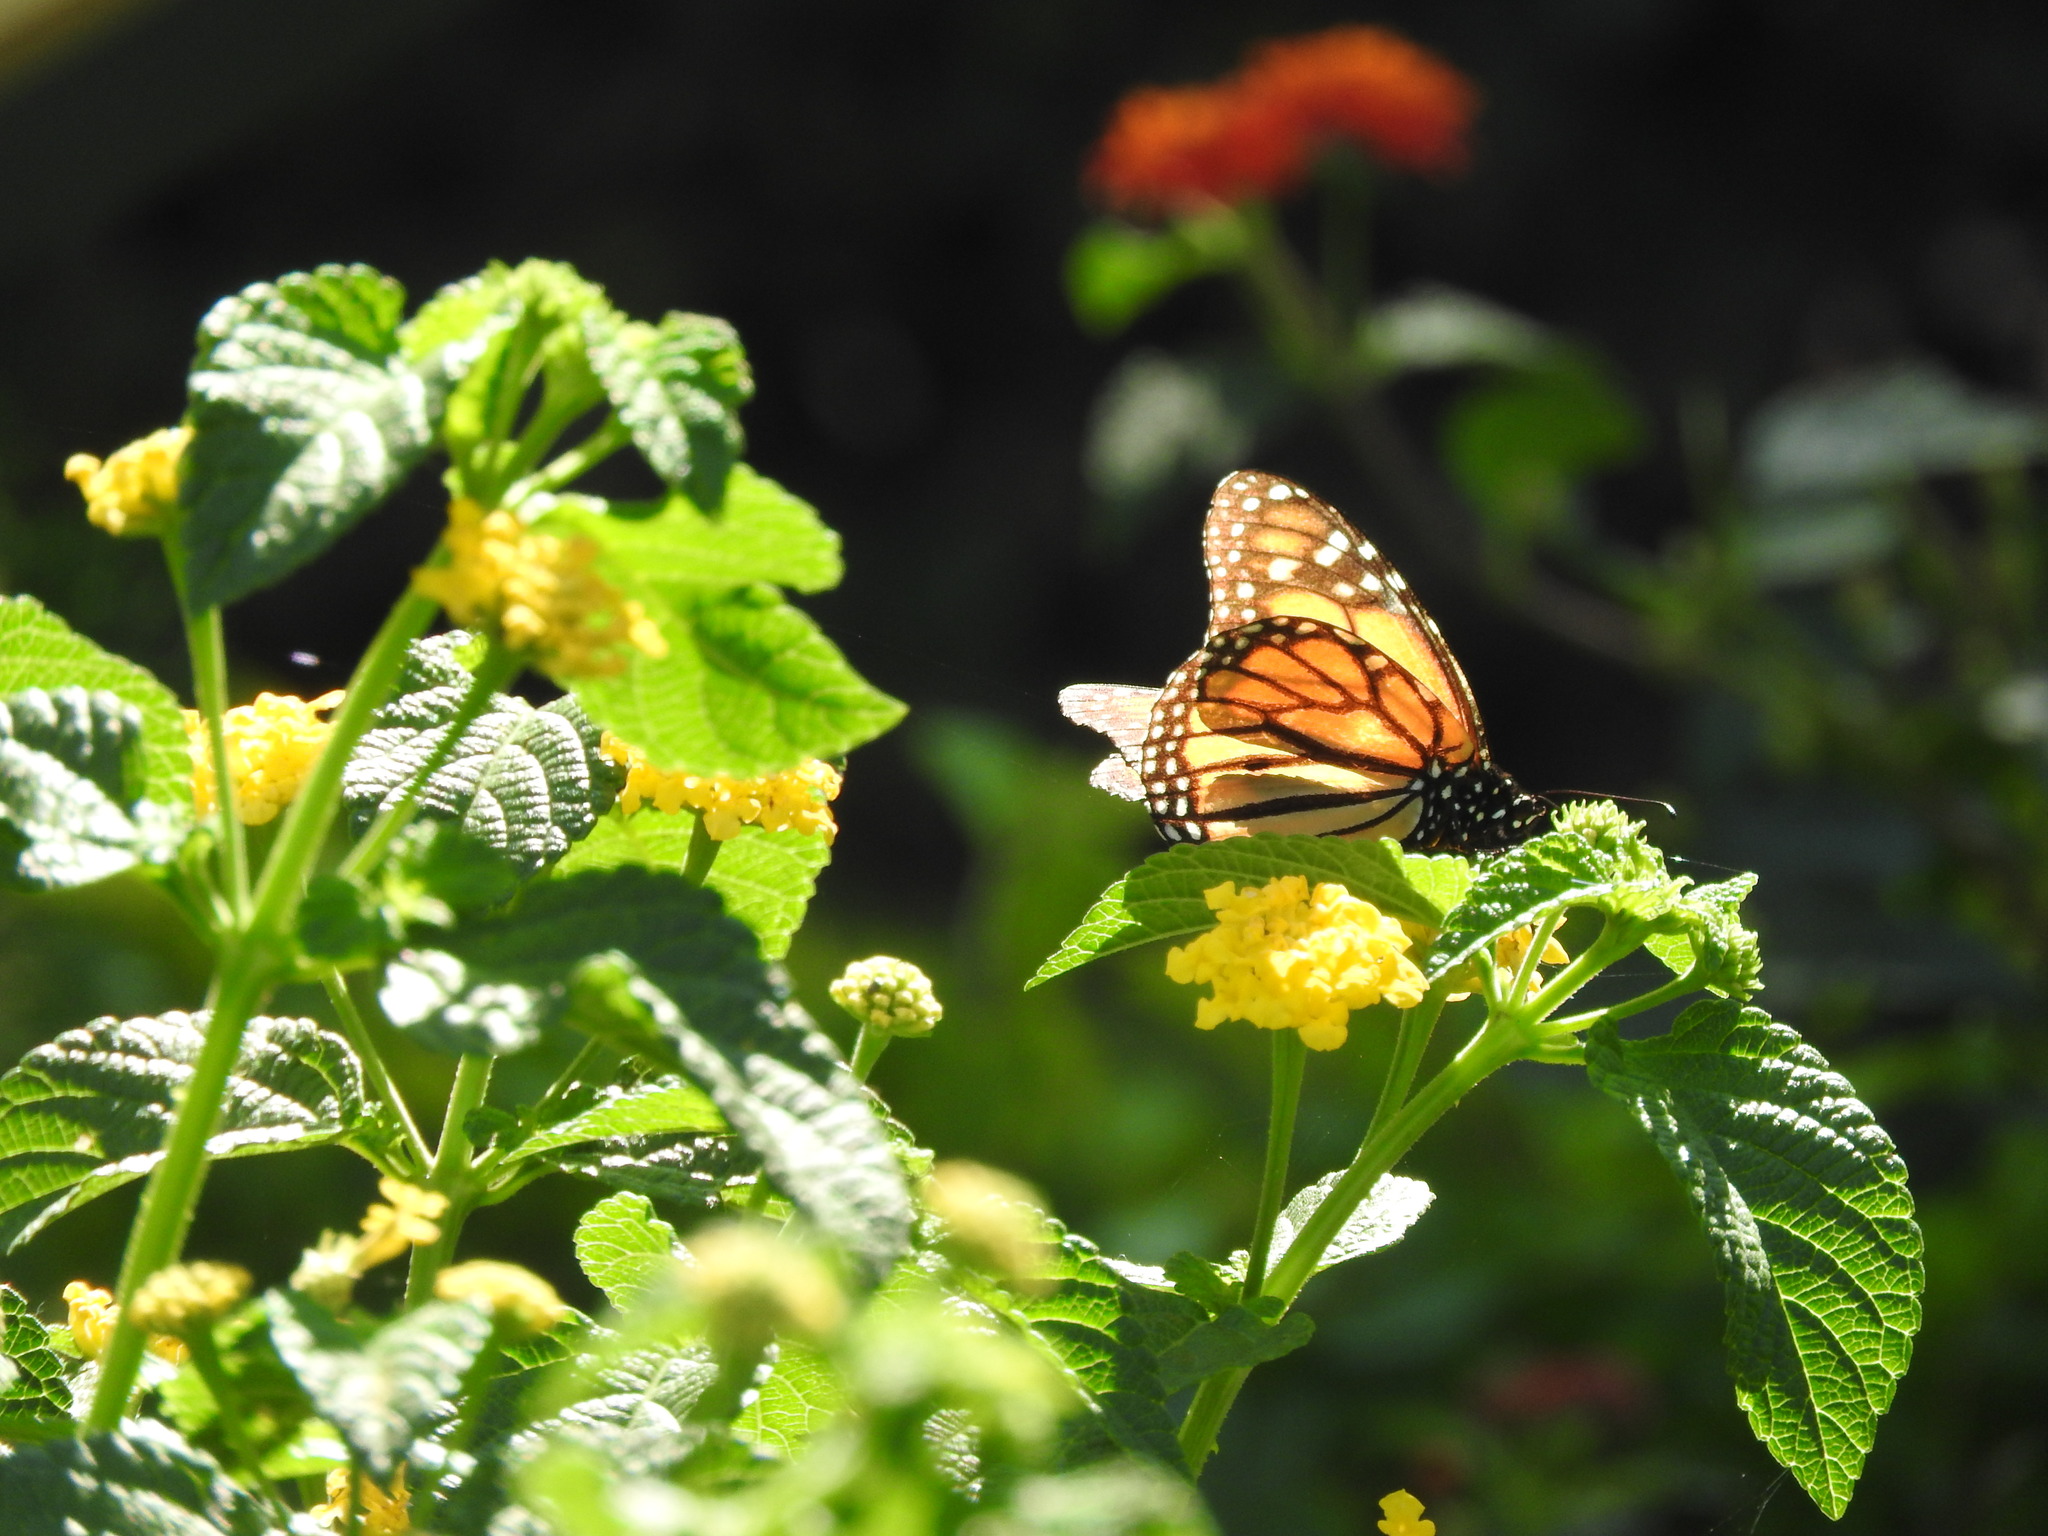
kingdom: Animalia
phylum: Arthropoda
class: Insecta
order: Lepidoptera
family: Nymphalidae
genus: Danaus
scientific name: Danaus plexippus
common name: Monarch
